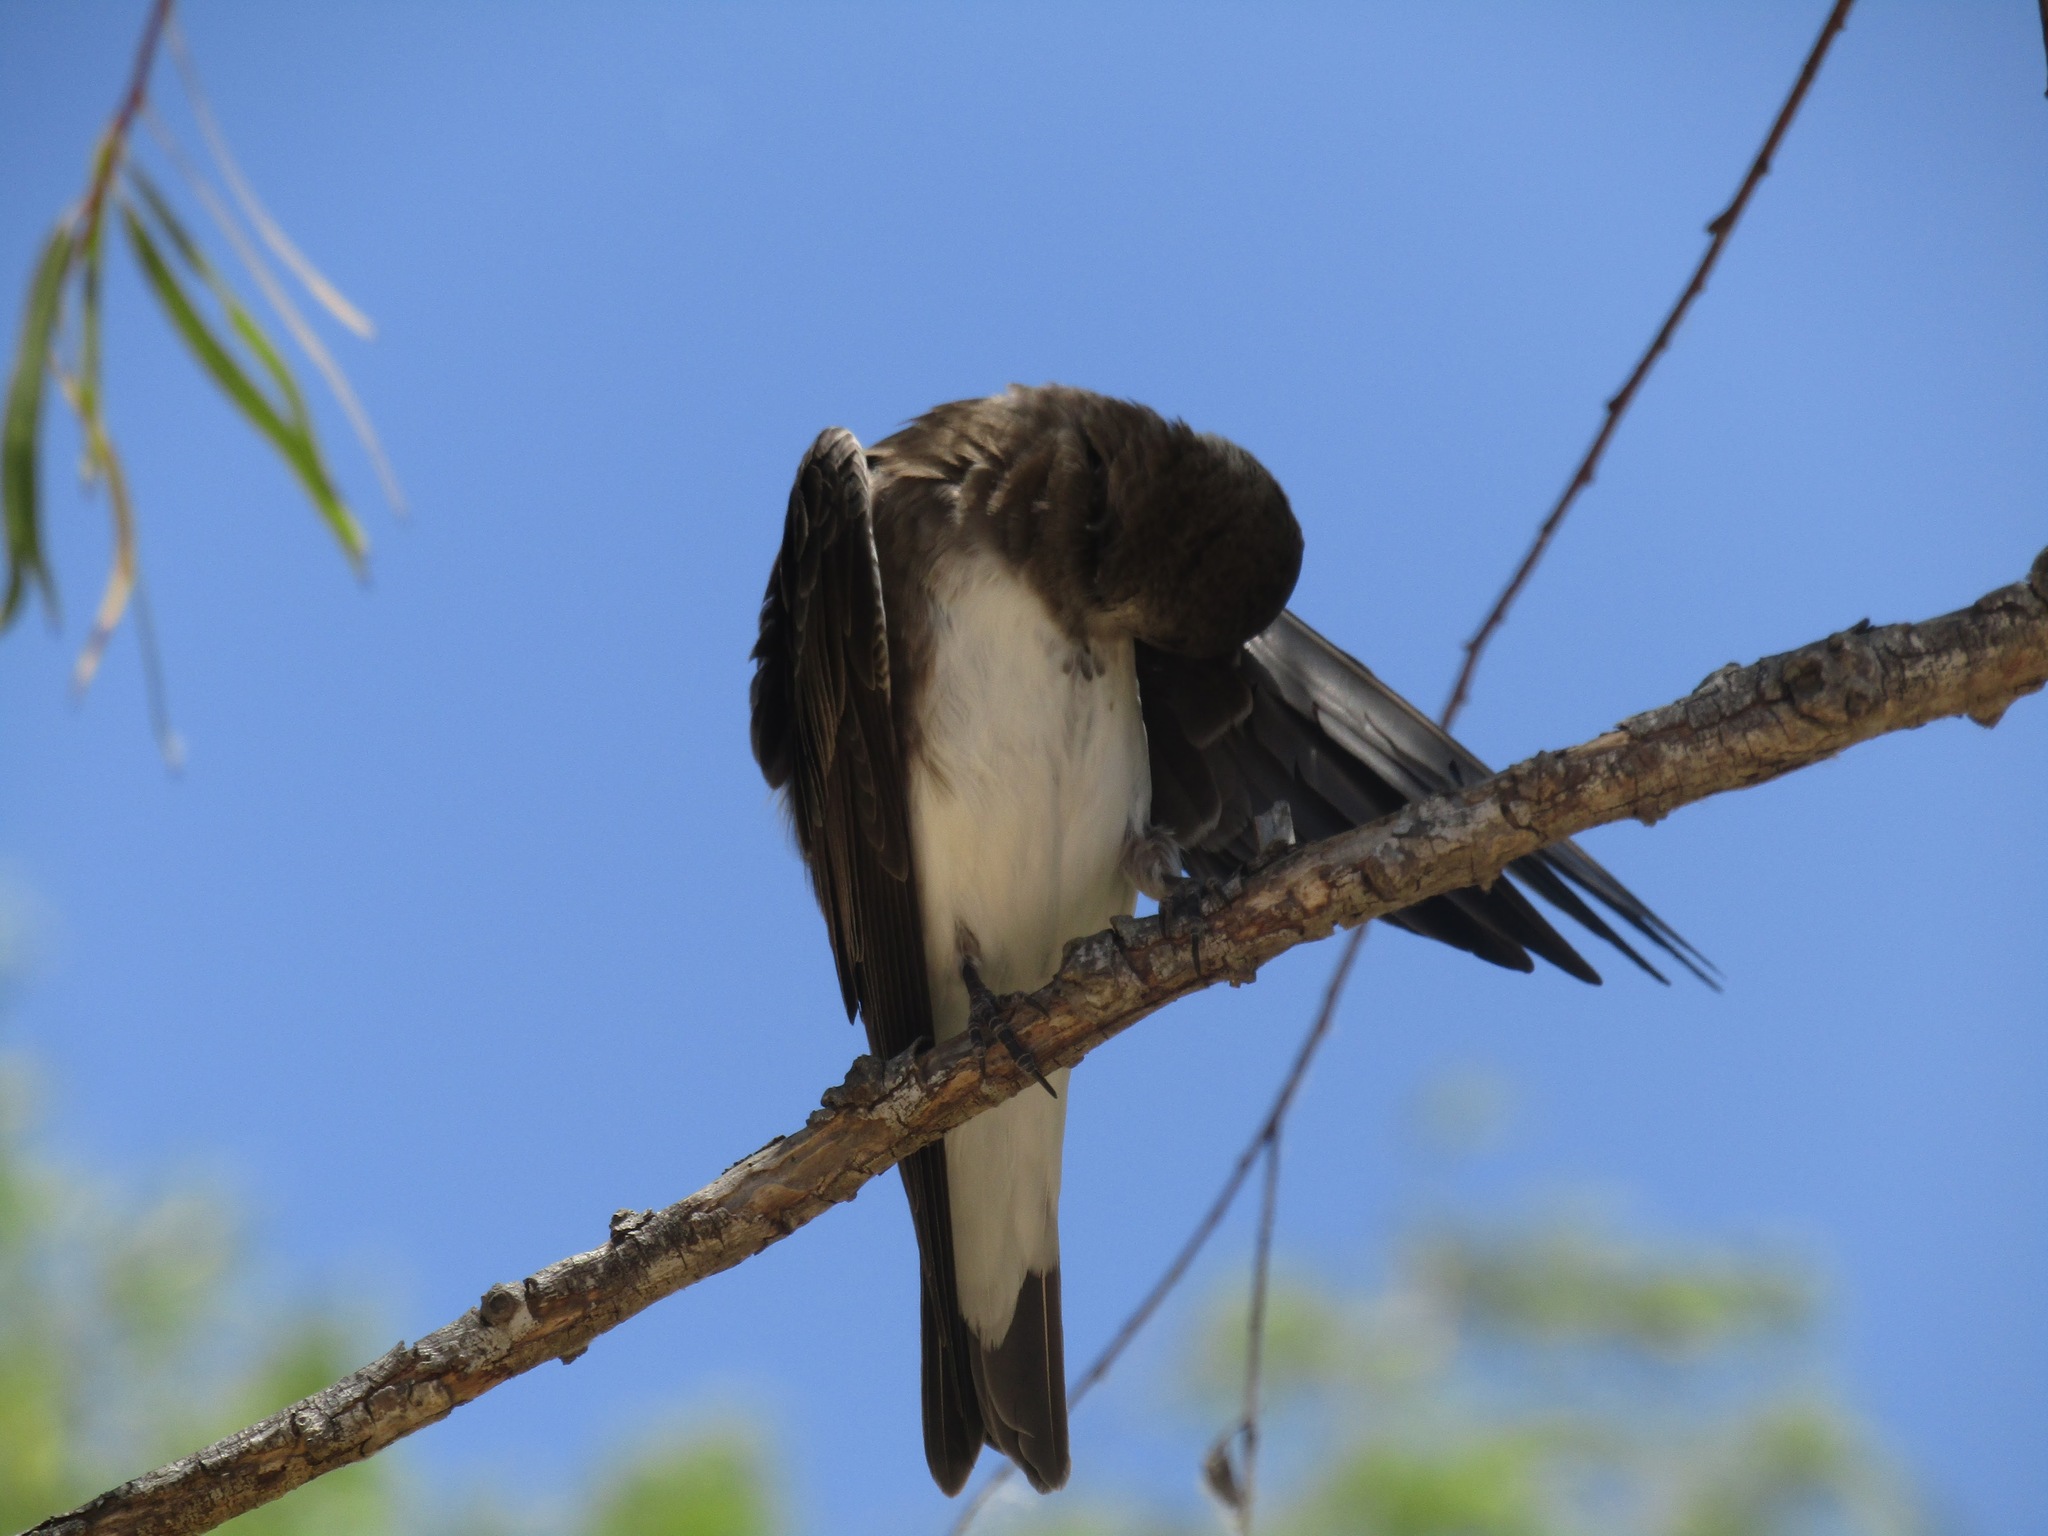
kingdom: Animalia
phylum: Chordata
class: Aves
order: Passeriformes
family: Hirundinidae
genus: Progne
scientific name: Progne tapera
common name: Brown-chested martin
